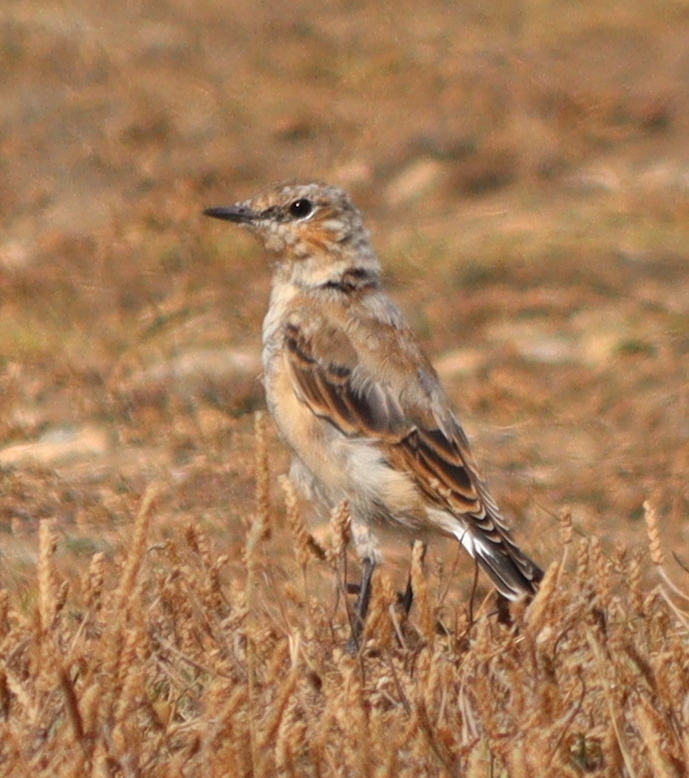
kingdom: Animalia
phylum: Chordata
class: Aves
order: Passeriformes
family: Muscicapidae
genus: Oenanthe
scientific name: Oenanthe oenanthe
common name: Northern wheatear
